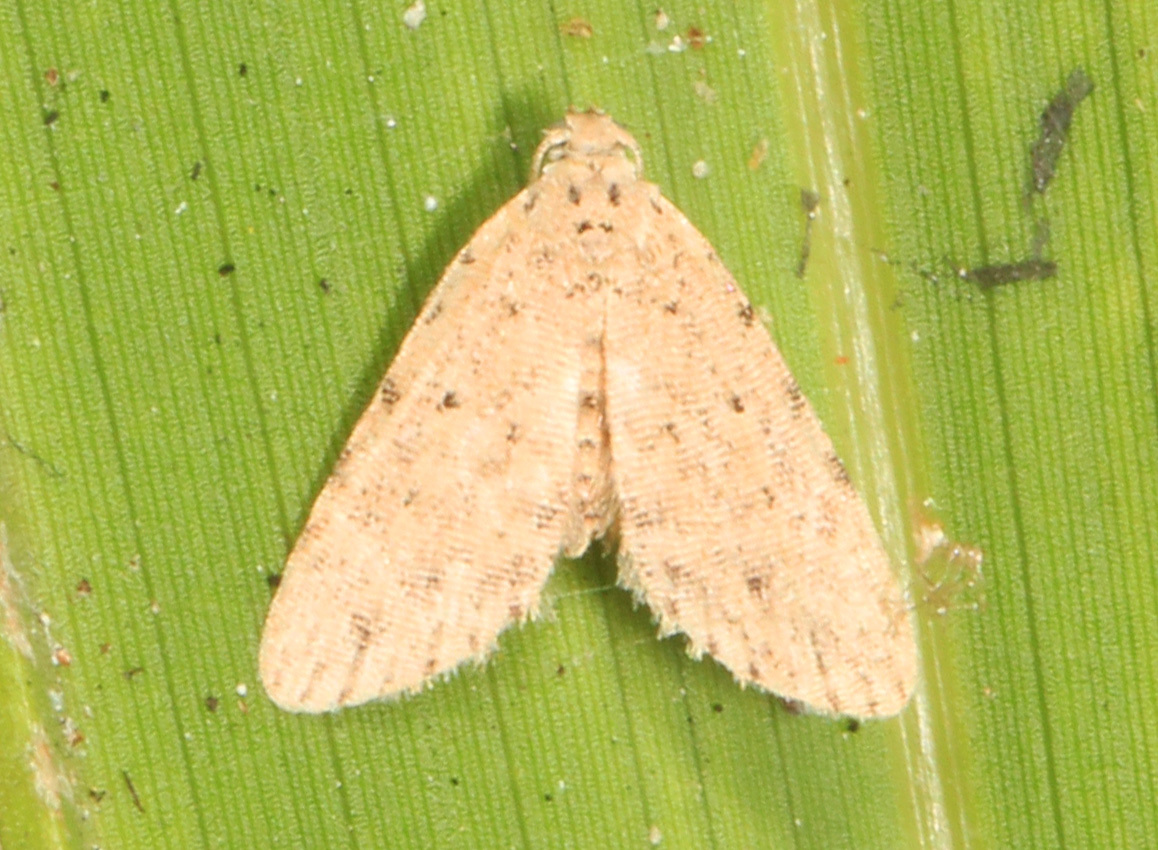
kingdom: Animalia
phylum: Arthropoda
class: Insecta
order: Lepidoptera
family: Erebidae
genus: Sigela
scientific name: Sigela penumbrata
